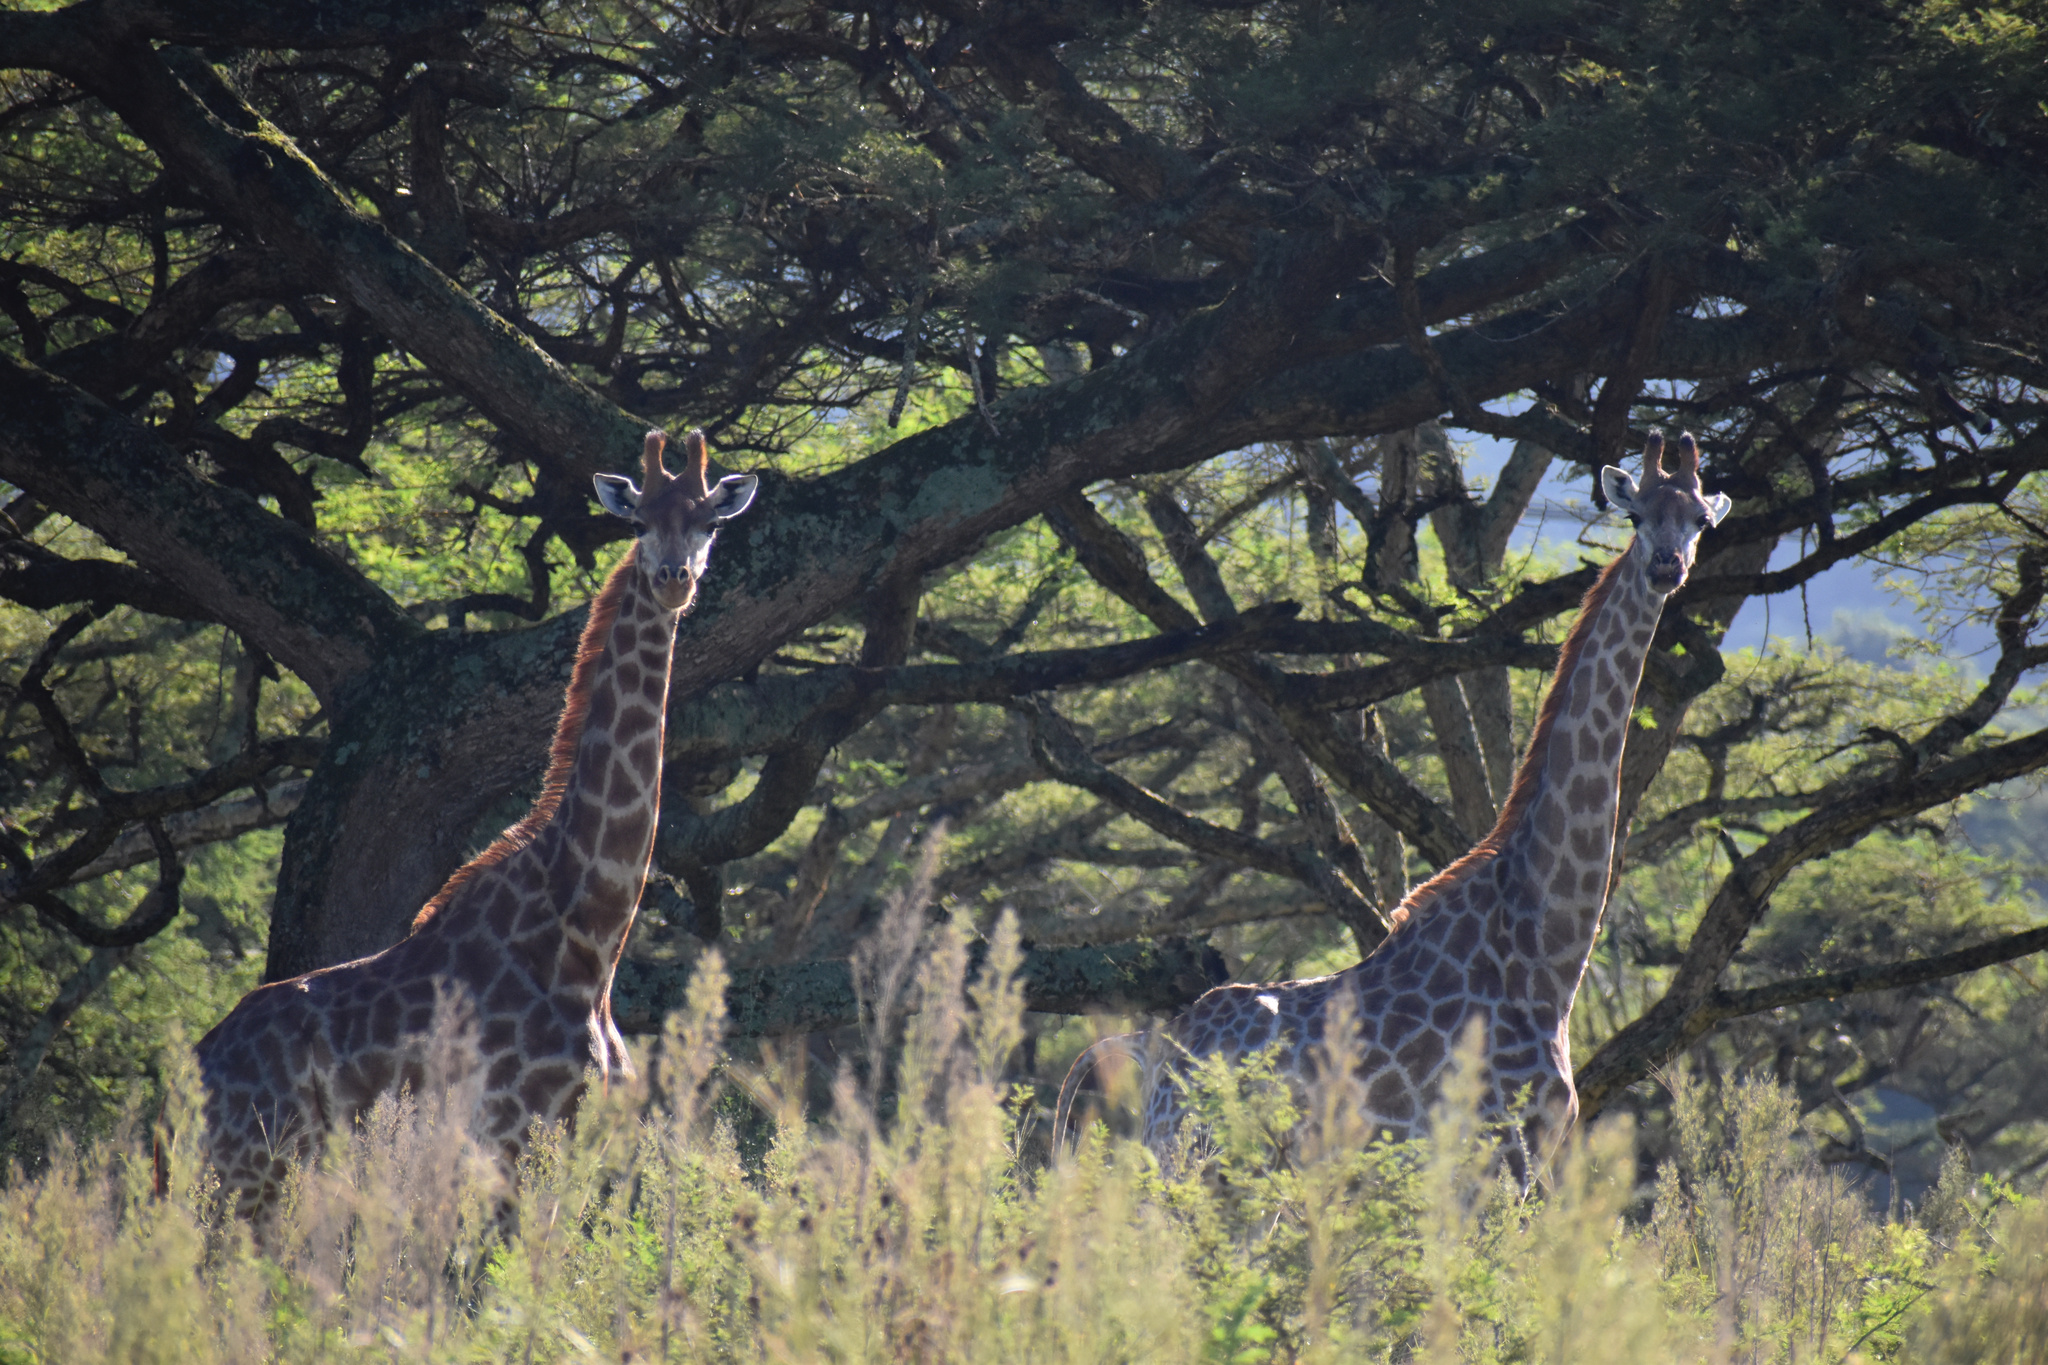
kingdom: Animalia
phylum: Chordata
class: Mammalia
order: Artiodactyla
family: Giraffidae
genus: Giraffa
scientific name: Giraffa giraffa
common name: Southern giraffe
